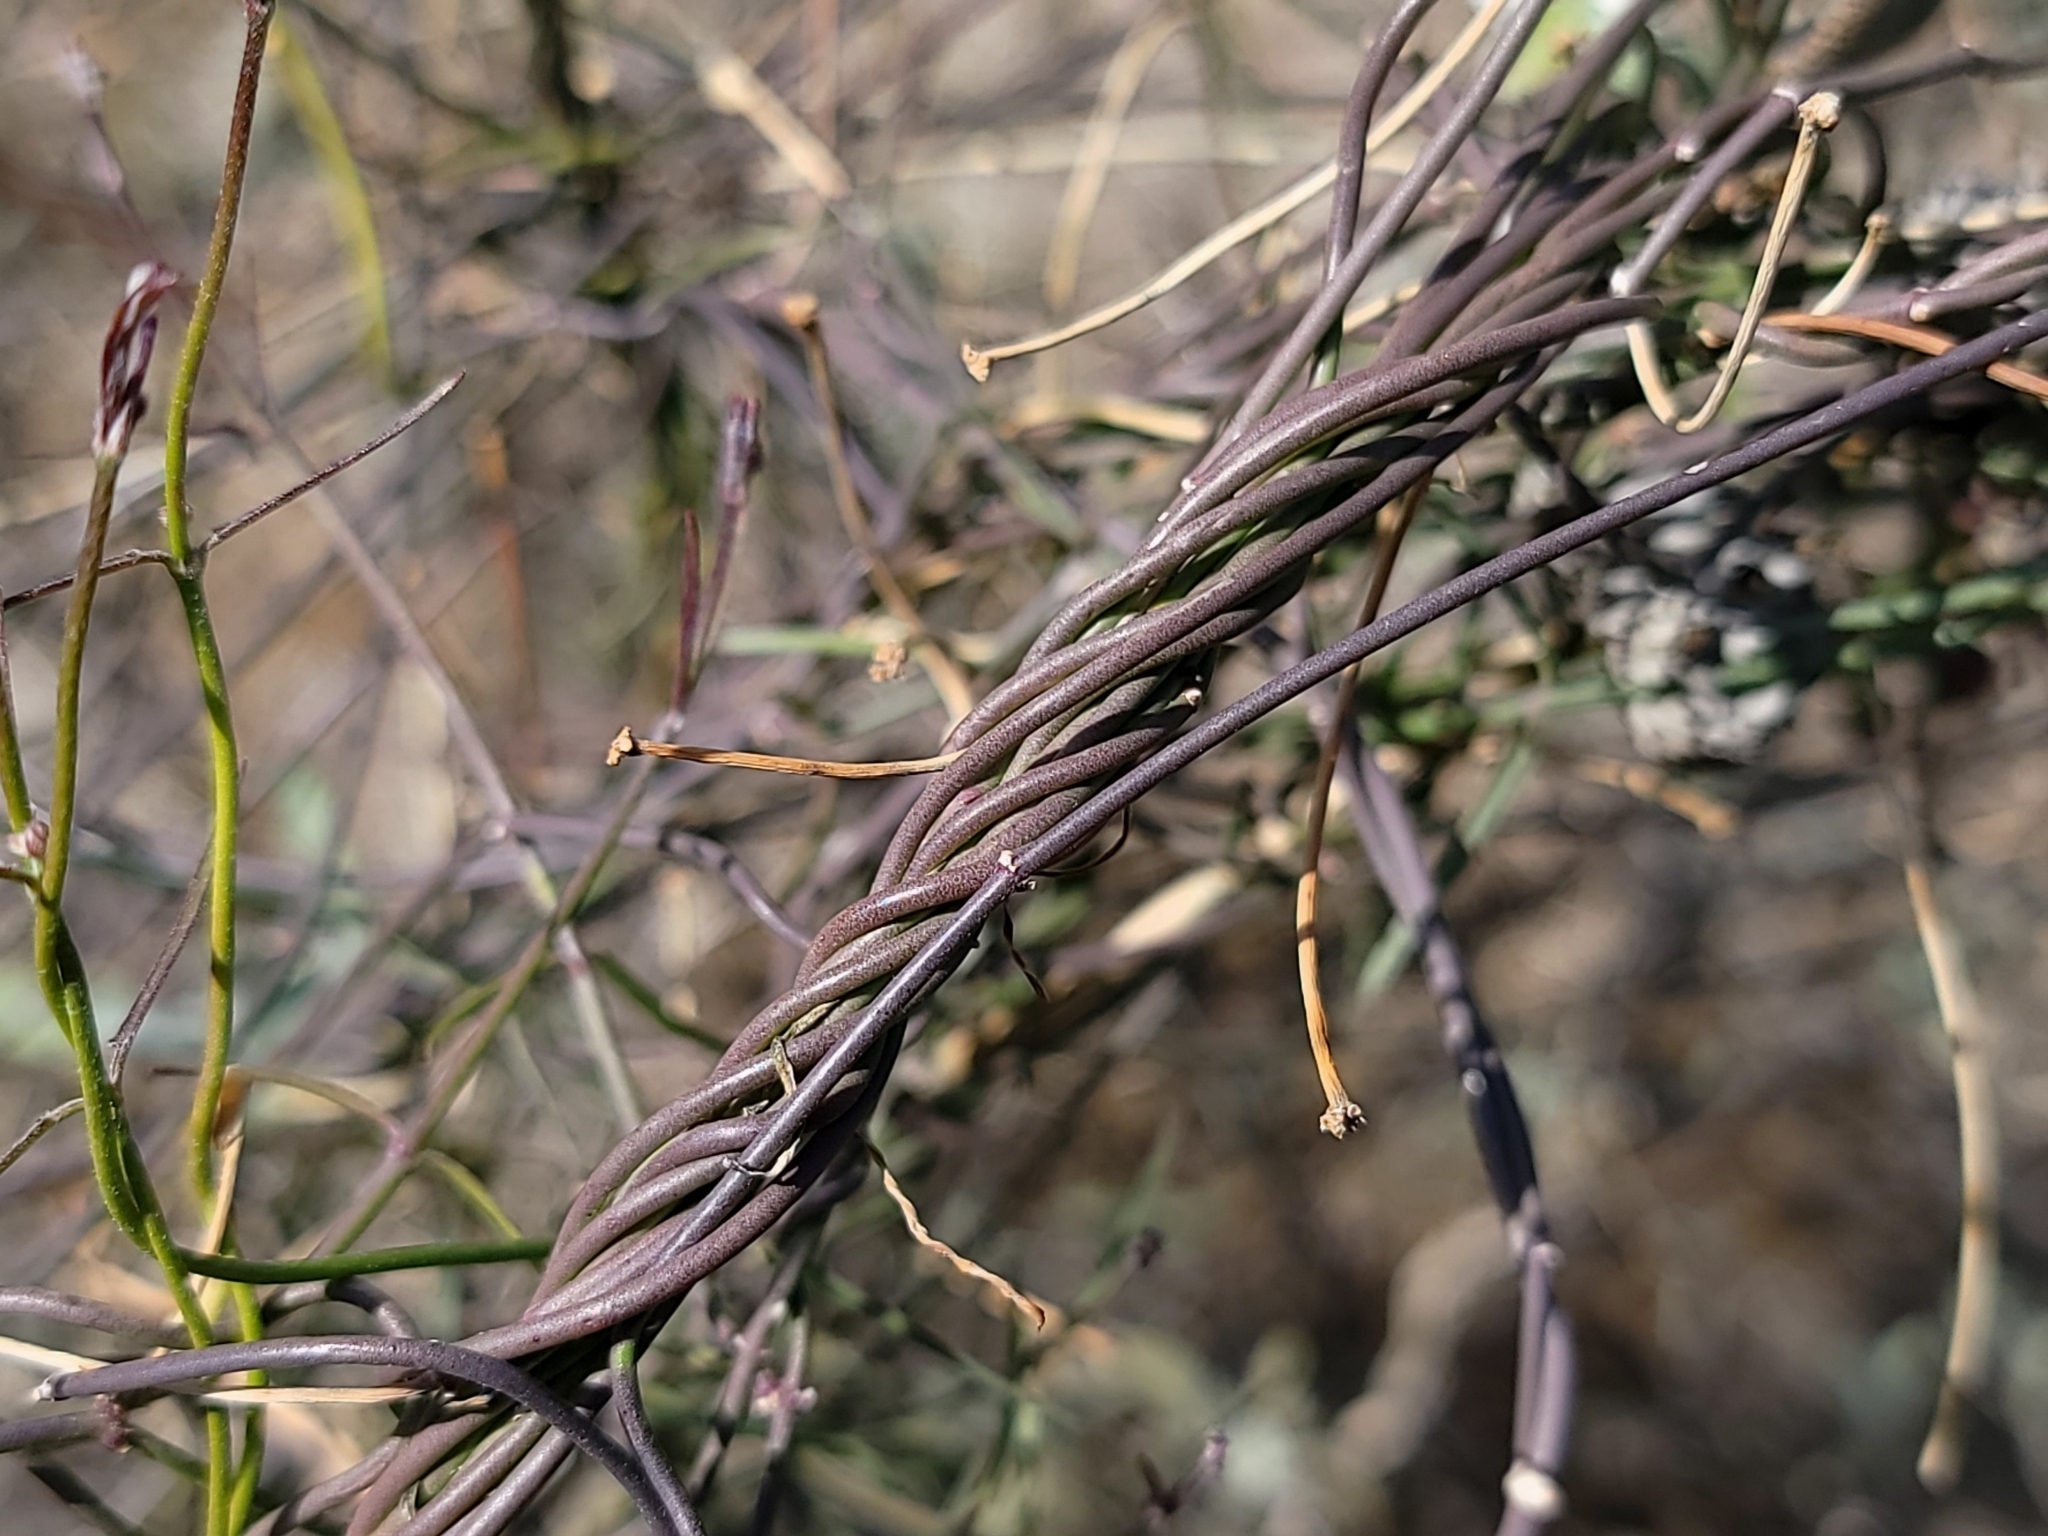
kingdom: Plantae
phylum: Tracheophyta
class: Magnoliopsida
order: Gentianales
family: Apocynaceae
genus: Funastrum
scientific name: Funastrum heterophyllum
